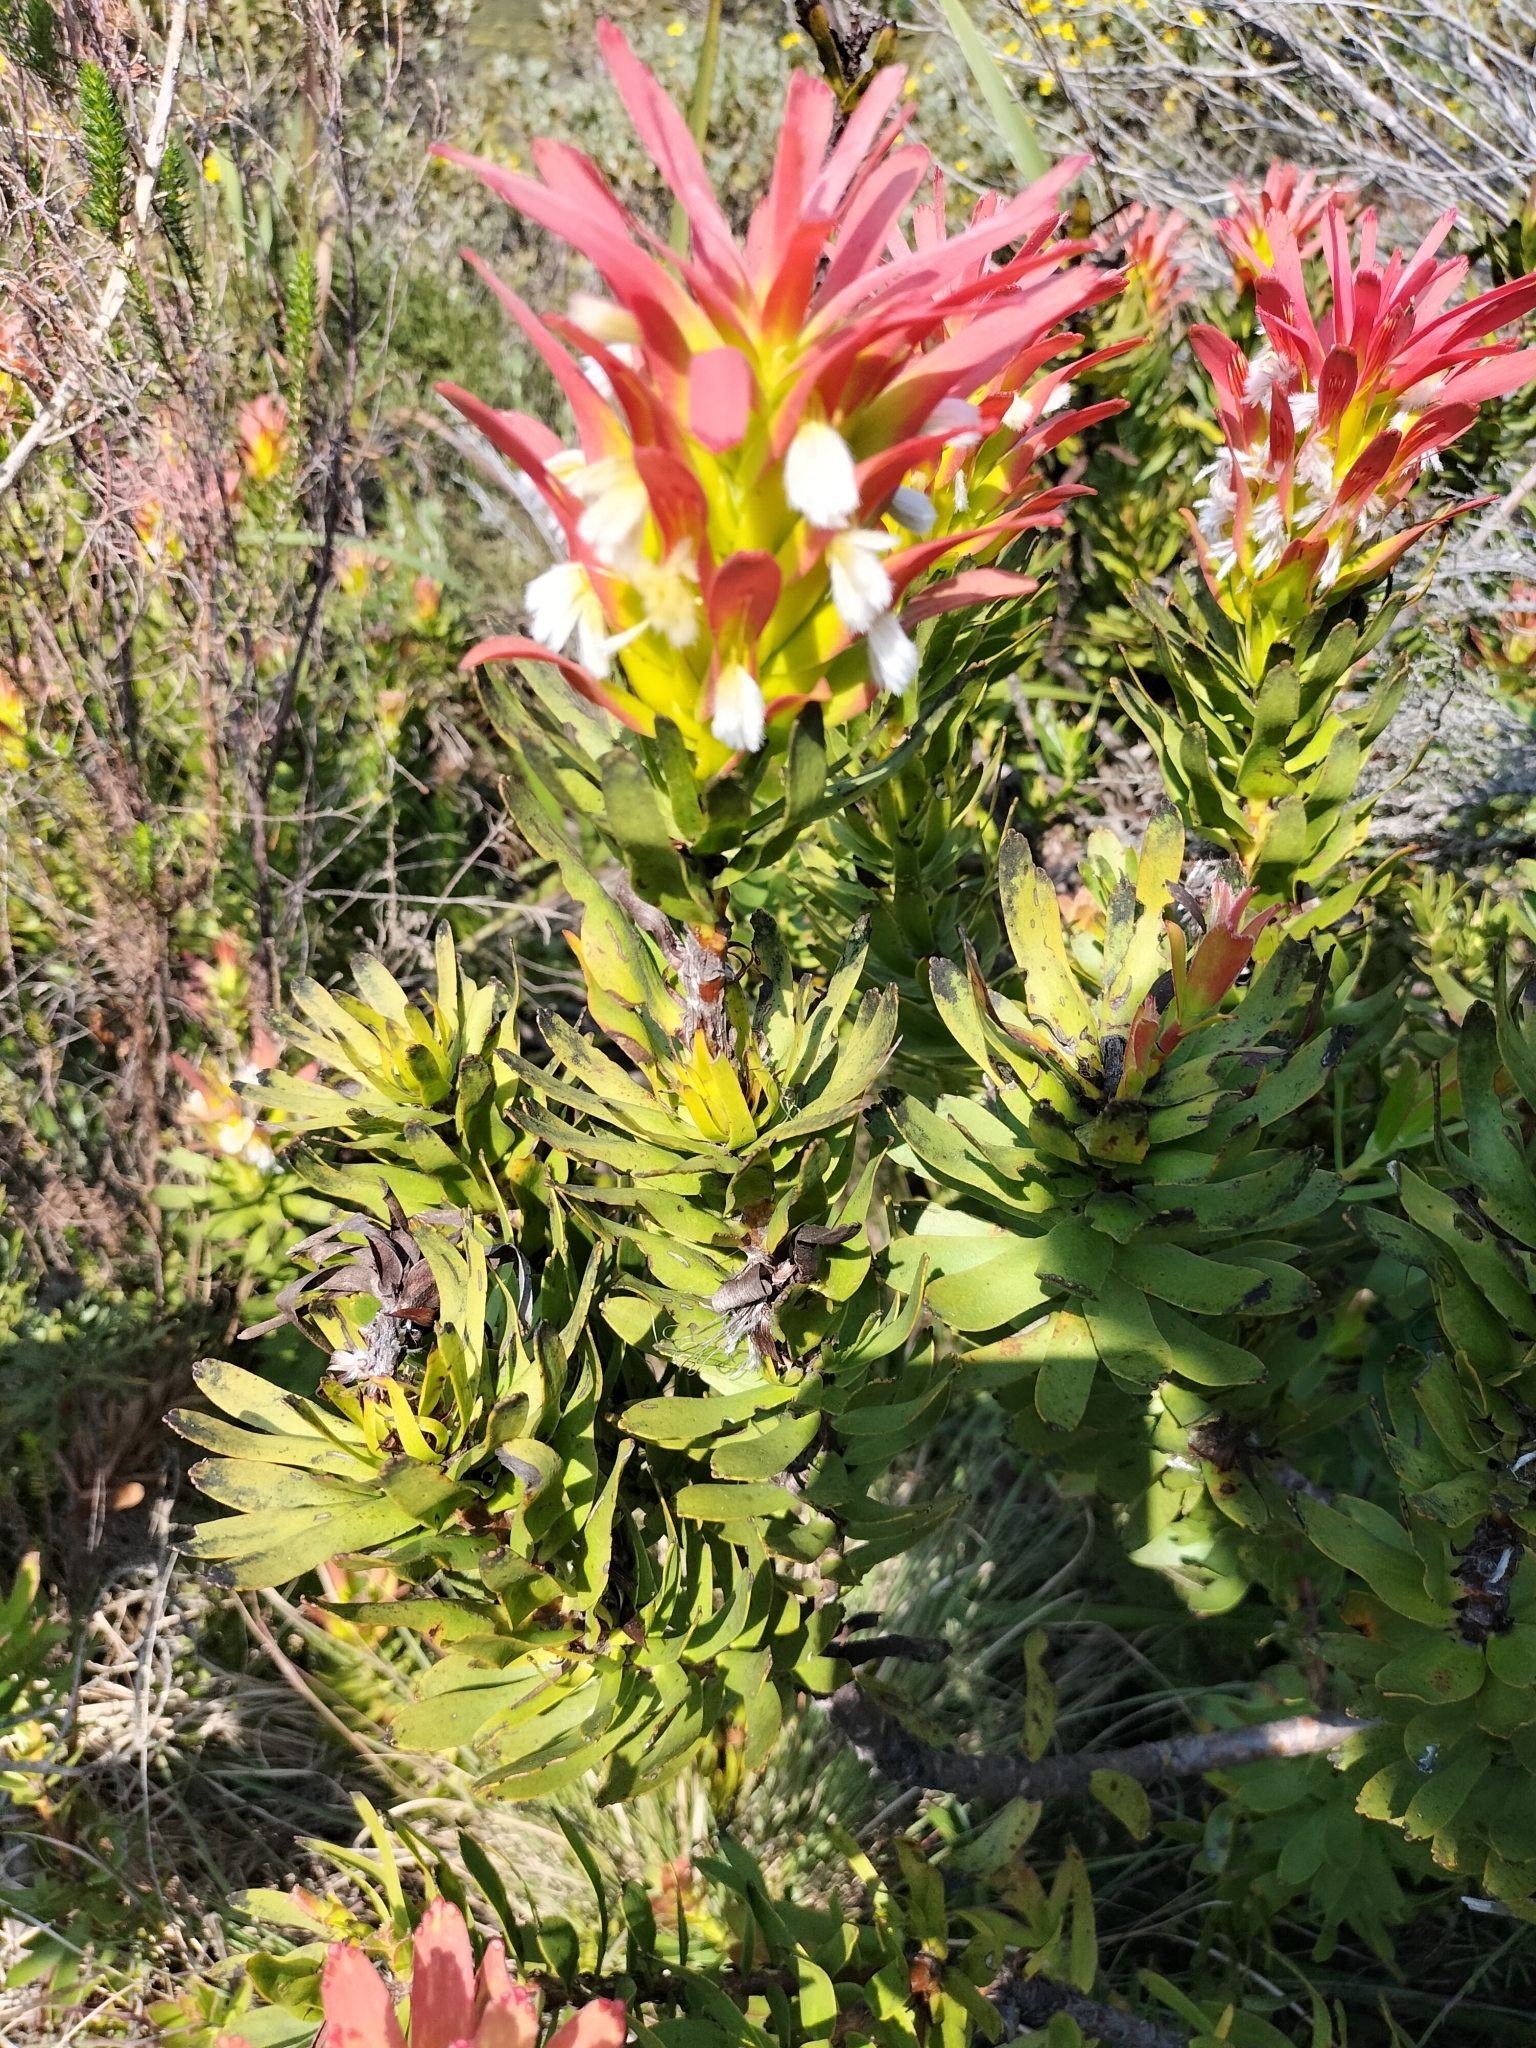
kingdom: Plantae
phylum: Tracheophyta
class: Magnoliopsida
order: Proteales
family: Proteaceae
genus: Mimetes
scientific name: Mimetes cucullatus
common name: Common pagoda
